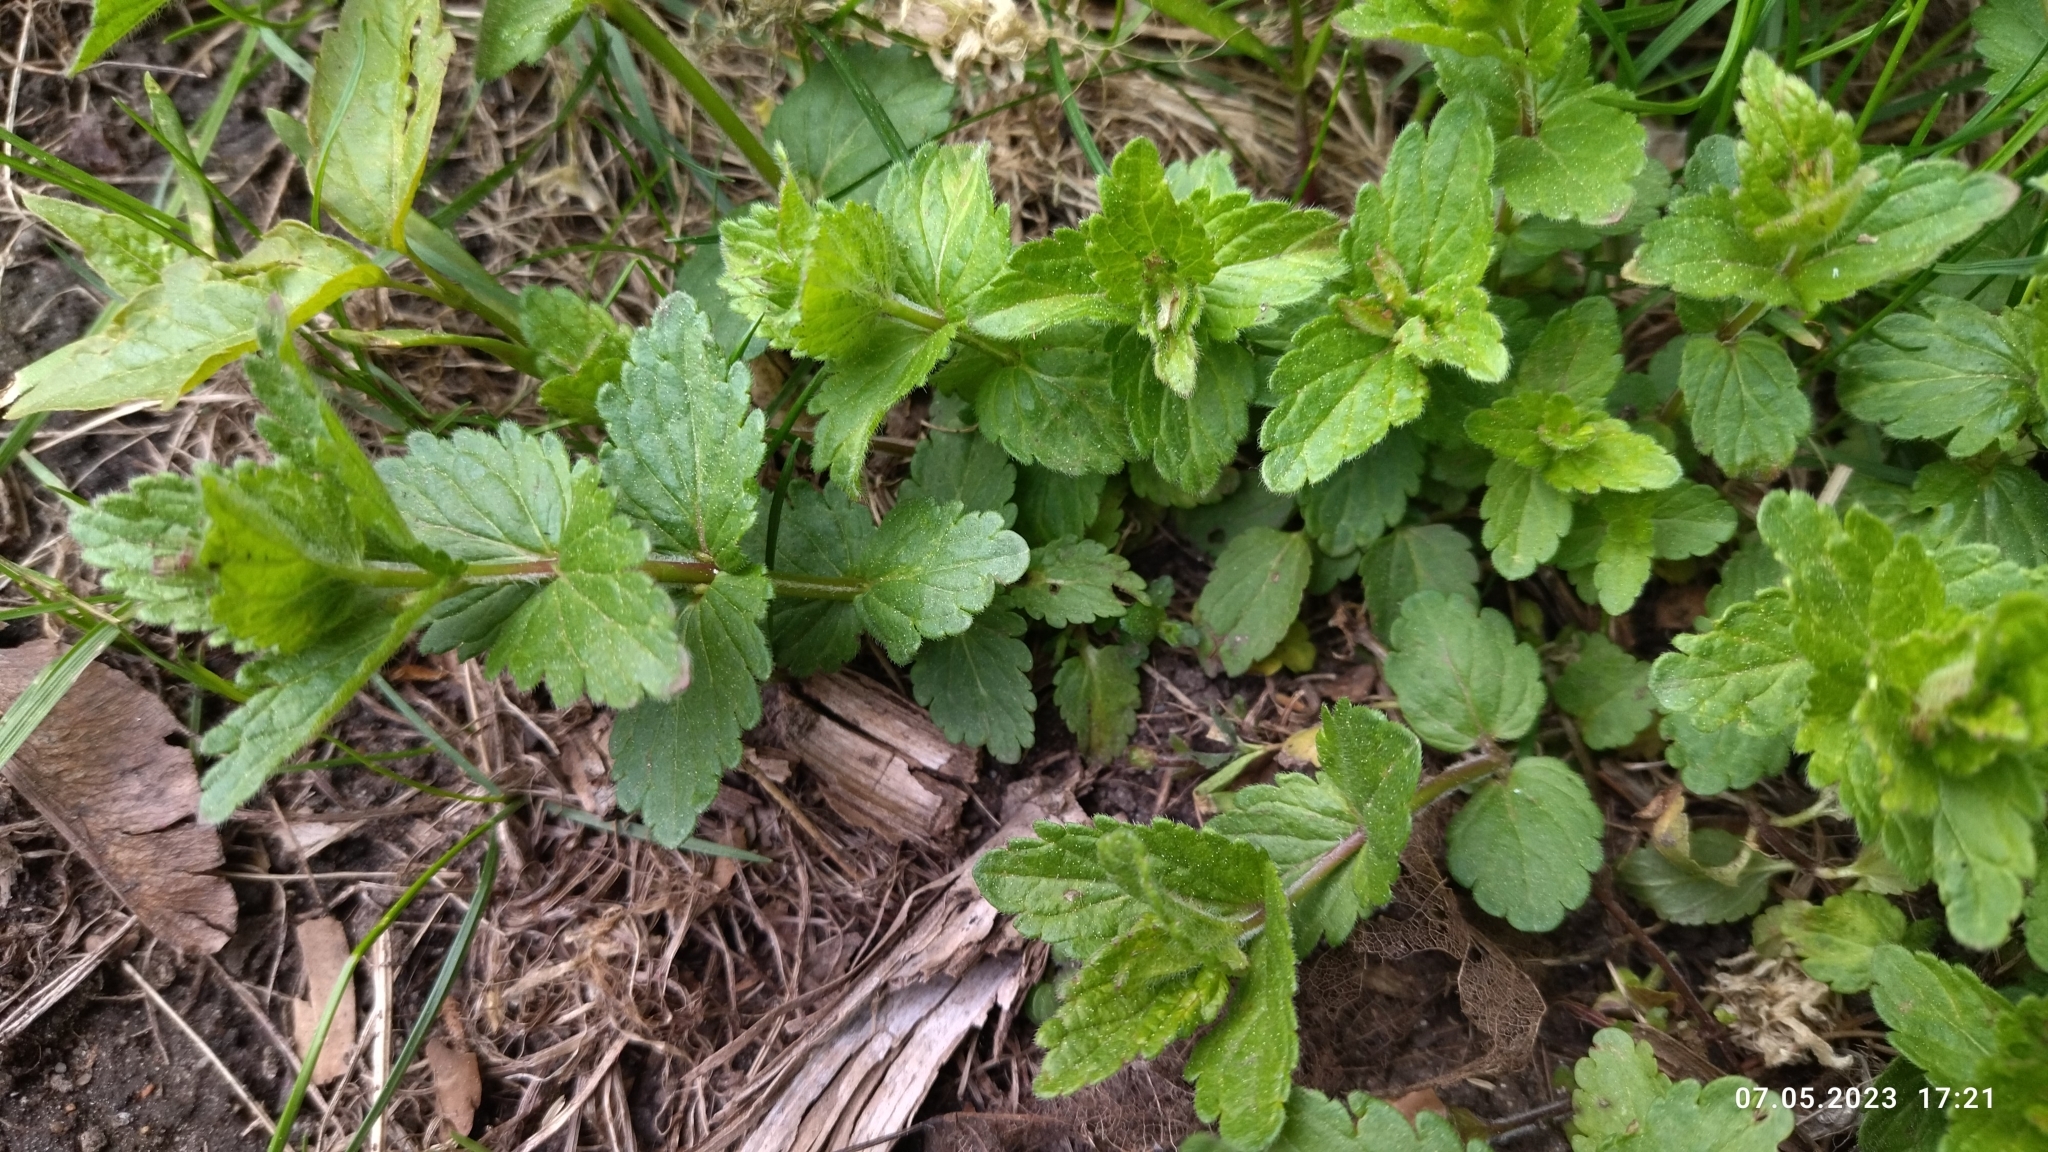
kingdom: Plantae
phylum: Tracheophyta
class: Magnoliopsida
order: Lamiales
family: Plantaginaceae
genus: Veronica
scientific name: Veronica chamaedrys
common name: Germander speedwell
